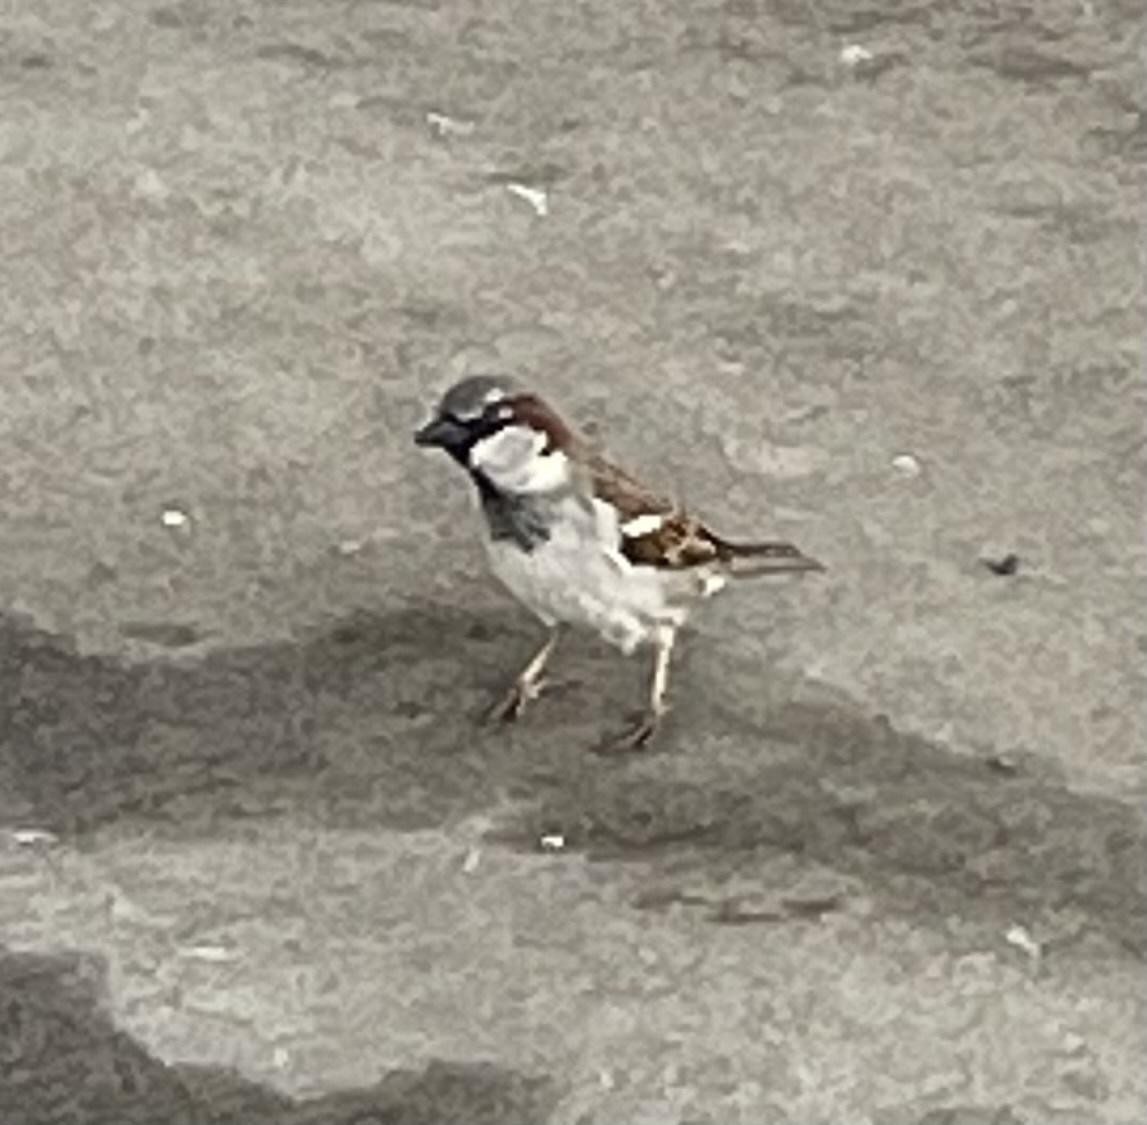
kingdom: Animalia
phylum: Chordata
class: Aves
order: Passeriformes
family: Passeridae
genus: Passer
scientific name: Passer domesticus
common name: House sparrow
